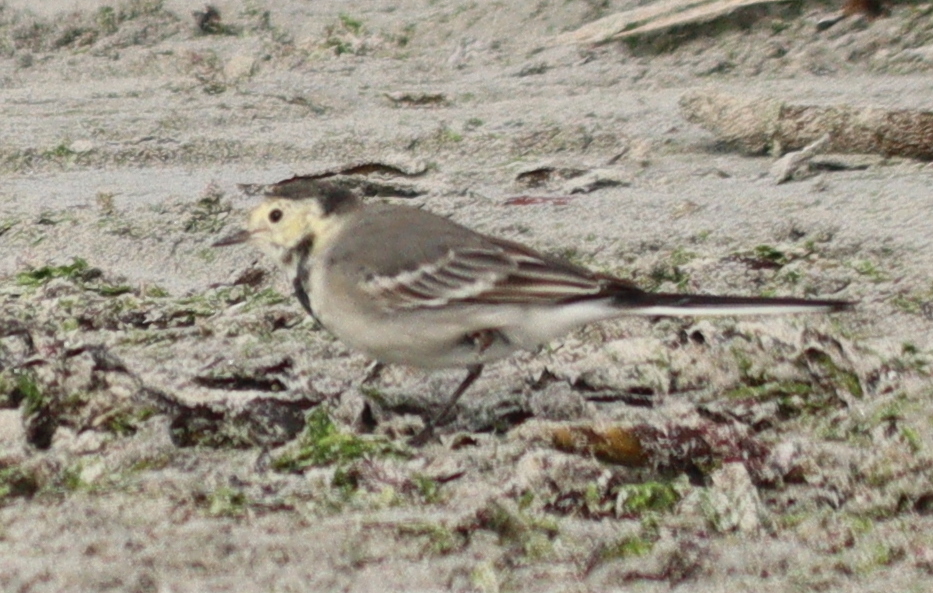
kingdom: Animalia
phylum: Chordata
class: Aves
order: Passeriformes
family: Motacillidae
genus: Motacilla
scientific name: Motacilla alba
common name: White wagtail
